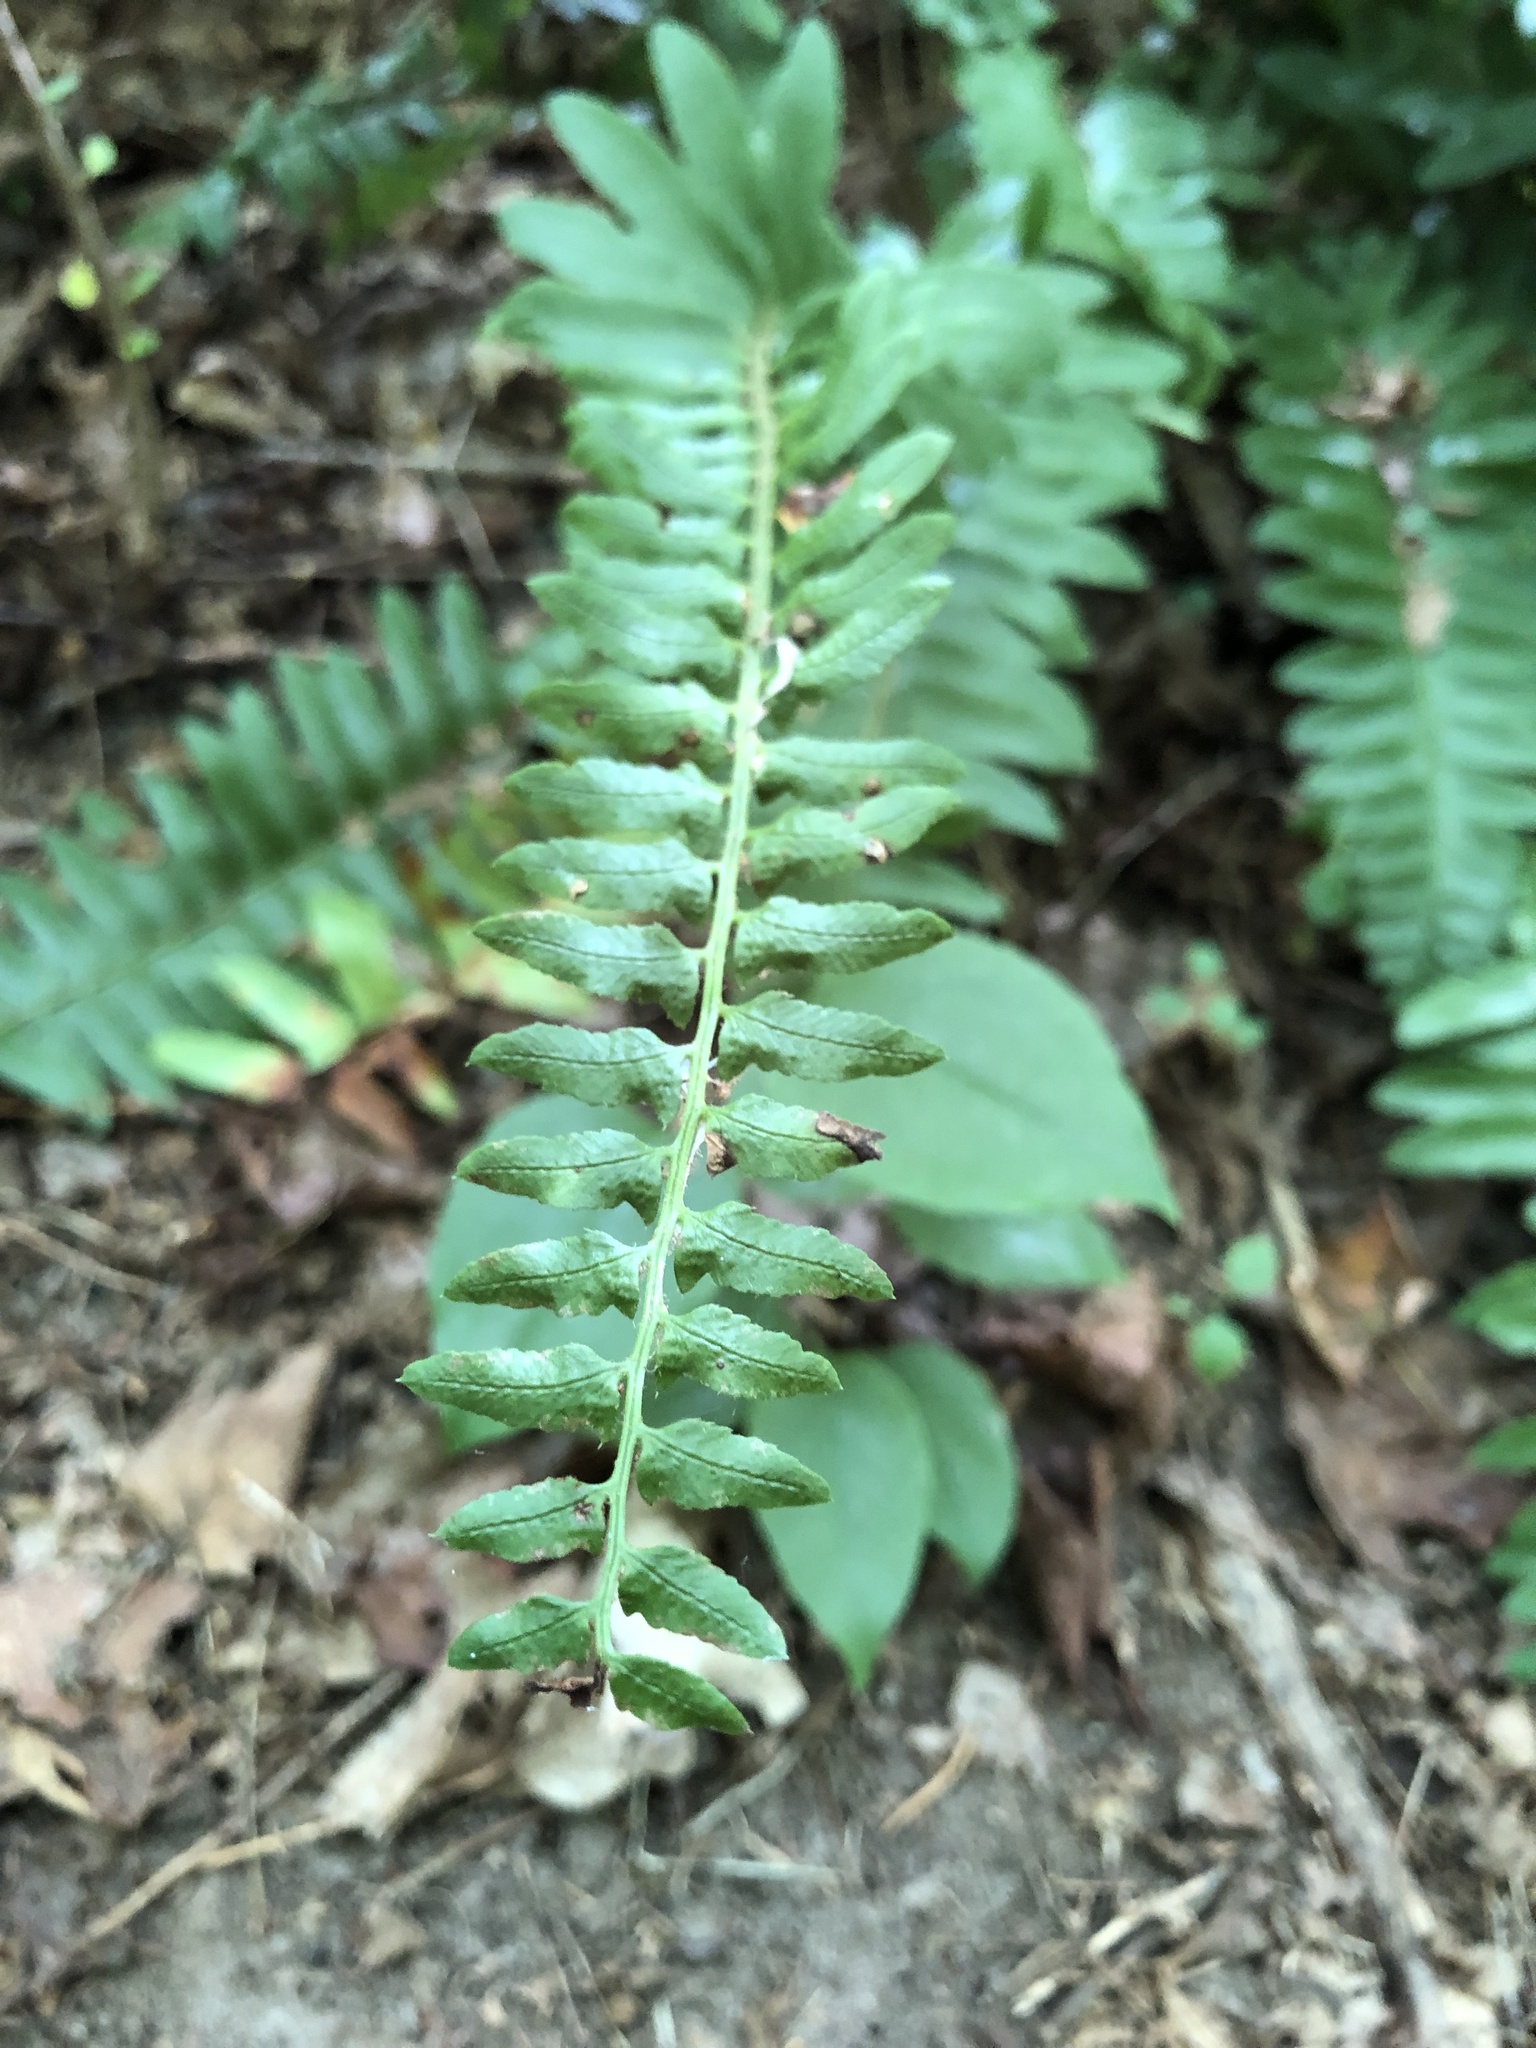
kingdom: Plantae
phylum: Tracheophyta
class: Polypodiopsida
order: Polypodiales
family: Dryopteridaceae
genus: Polystichum
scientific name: Polystichum acrostichoides
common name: Christmas fern
